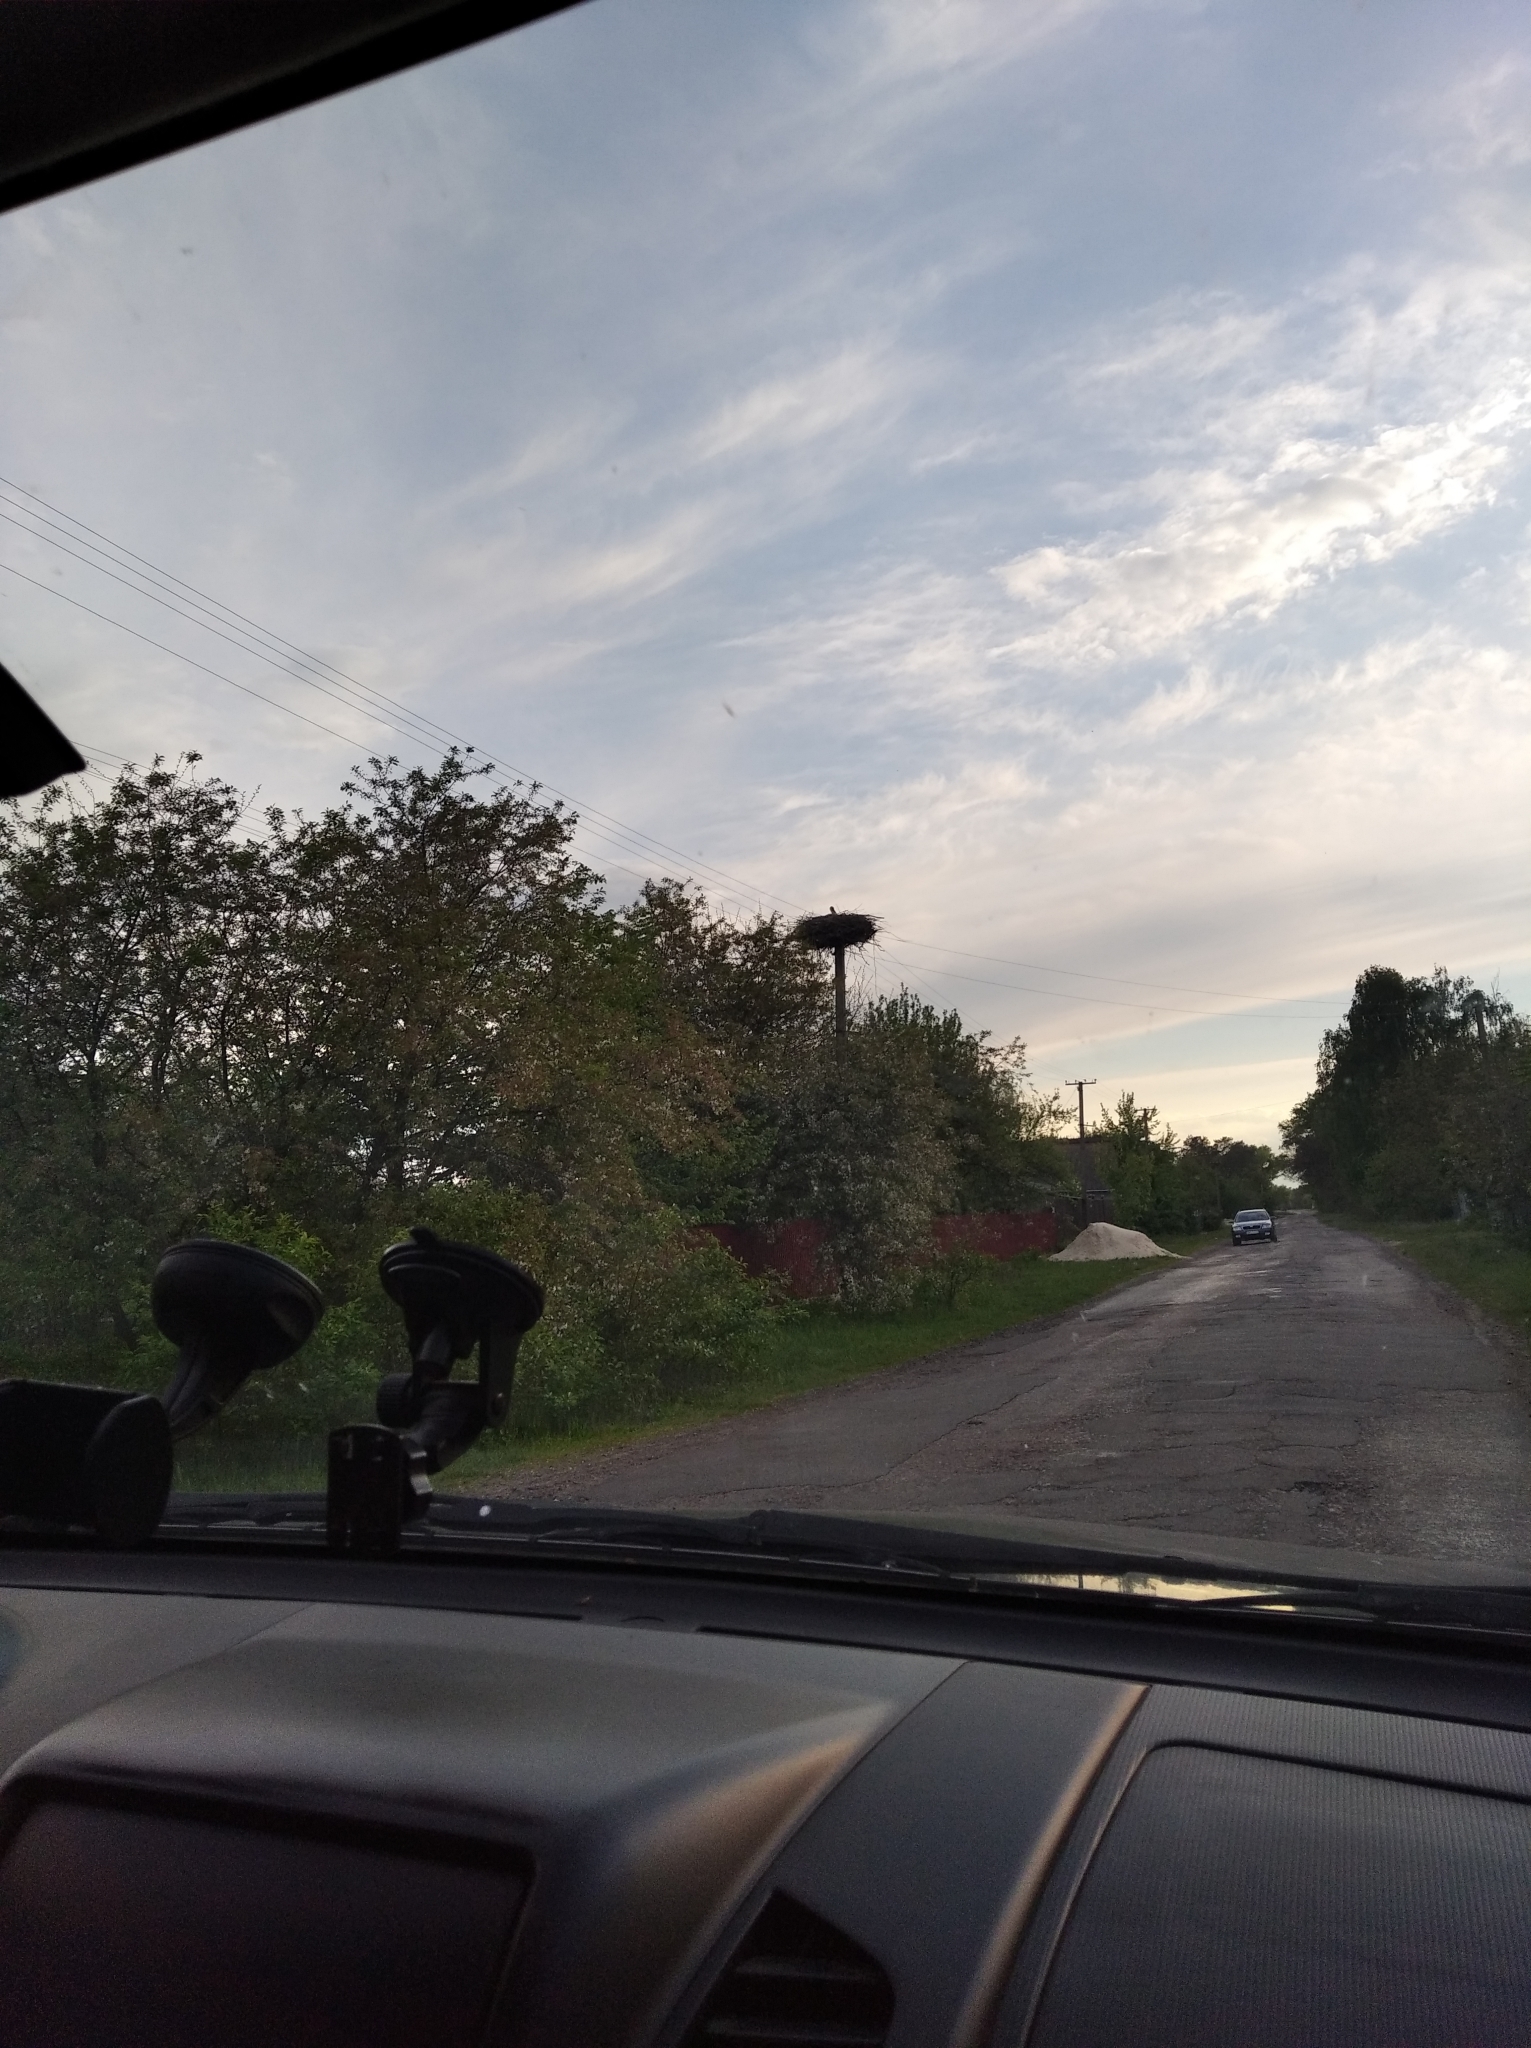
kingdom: Animalia
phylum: Chordata
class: Aves
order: Ciconiiformes
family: Ciconiidae
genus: Ciconia
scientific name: Ciconia ciconia
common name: White stork
